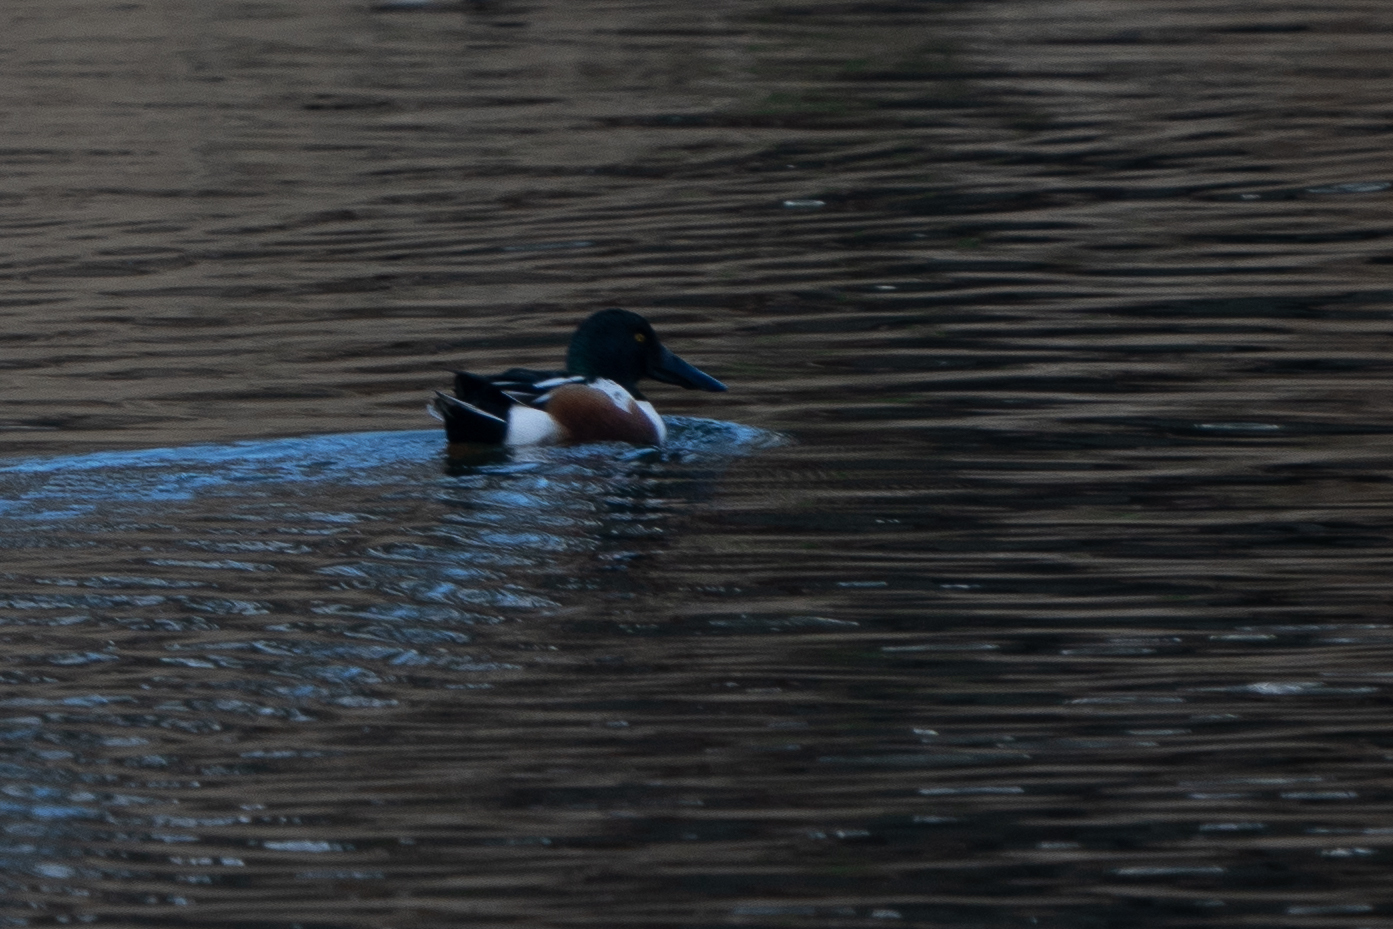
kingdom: Animalia
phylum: Chordata
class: Aves
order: Anseriformes
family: Anatidae
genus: Spatula
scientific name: Spatula clypeata
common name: Northern shoveler
